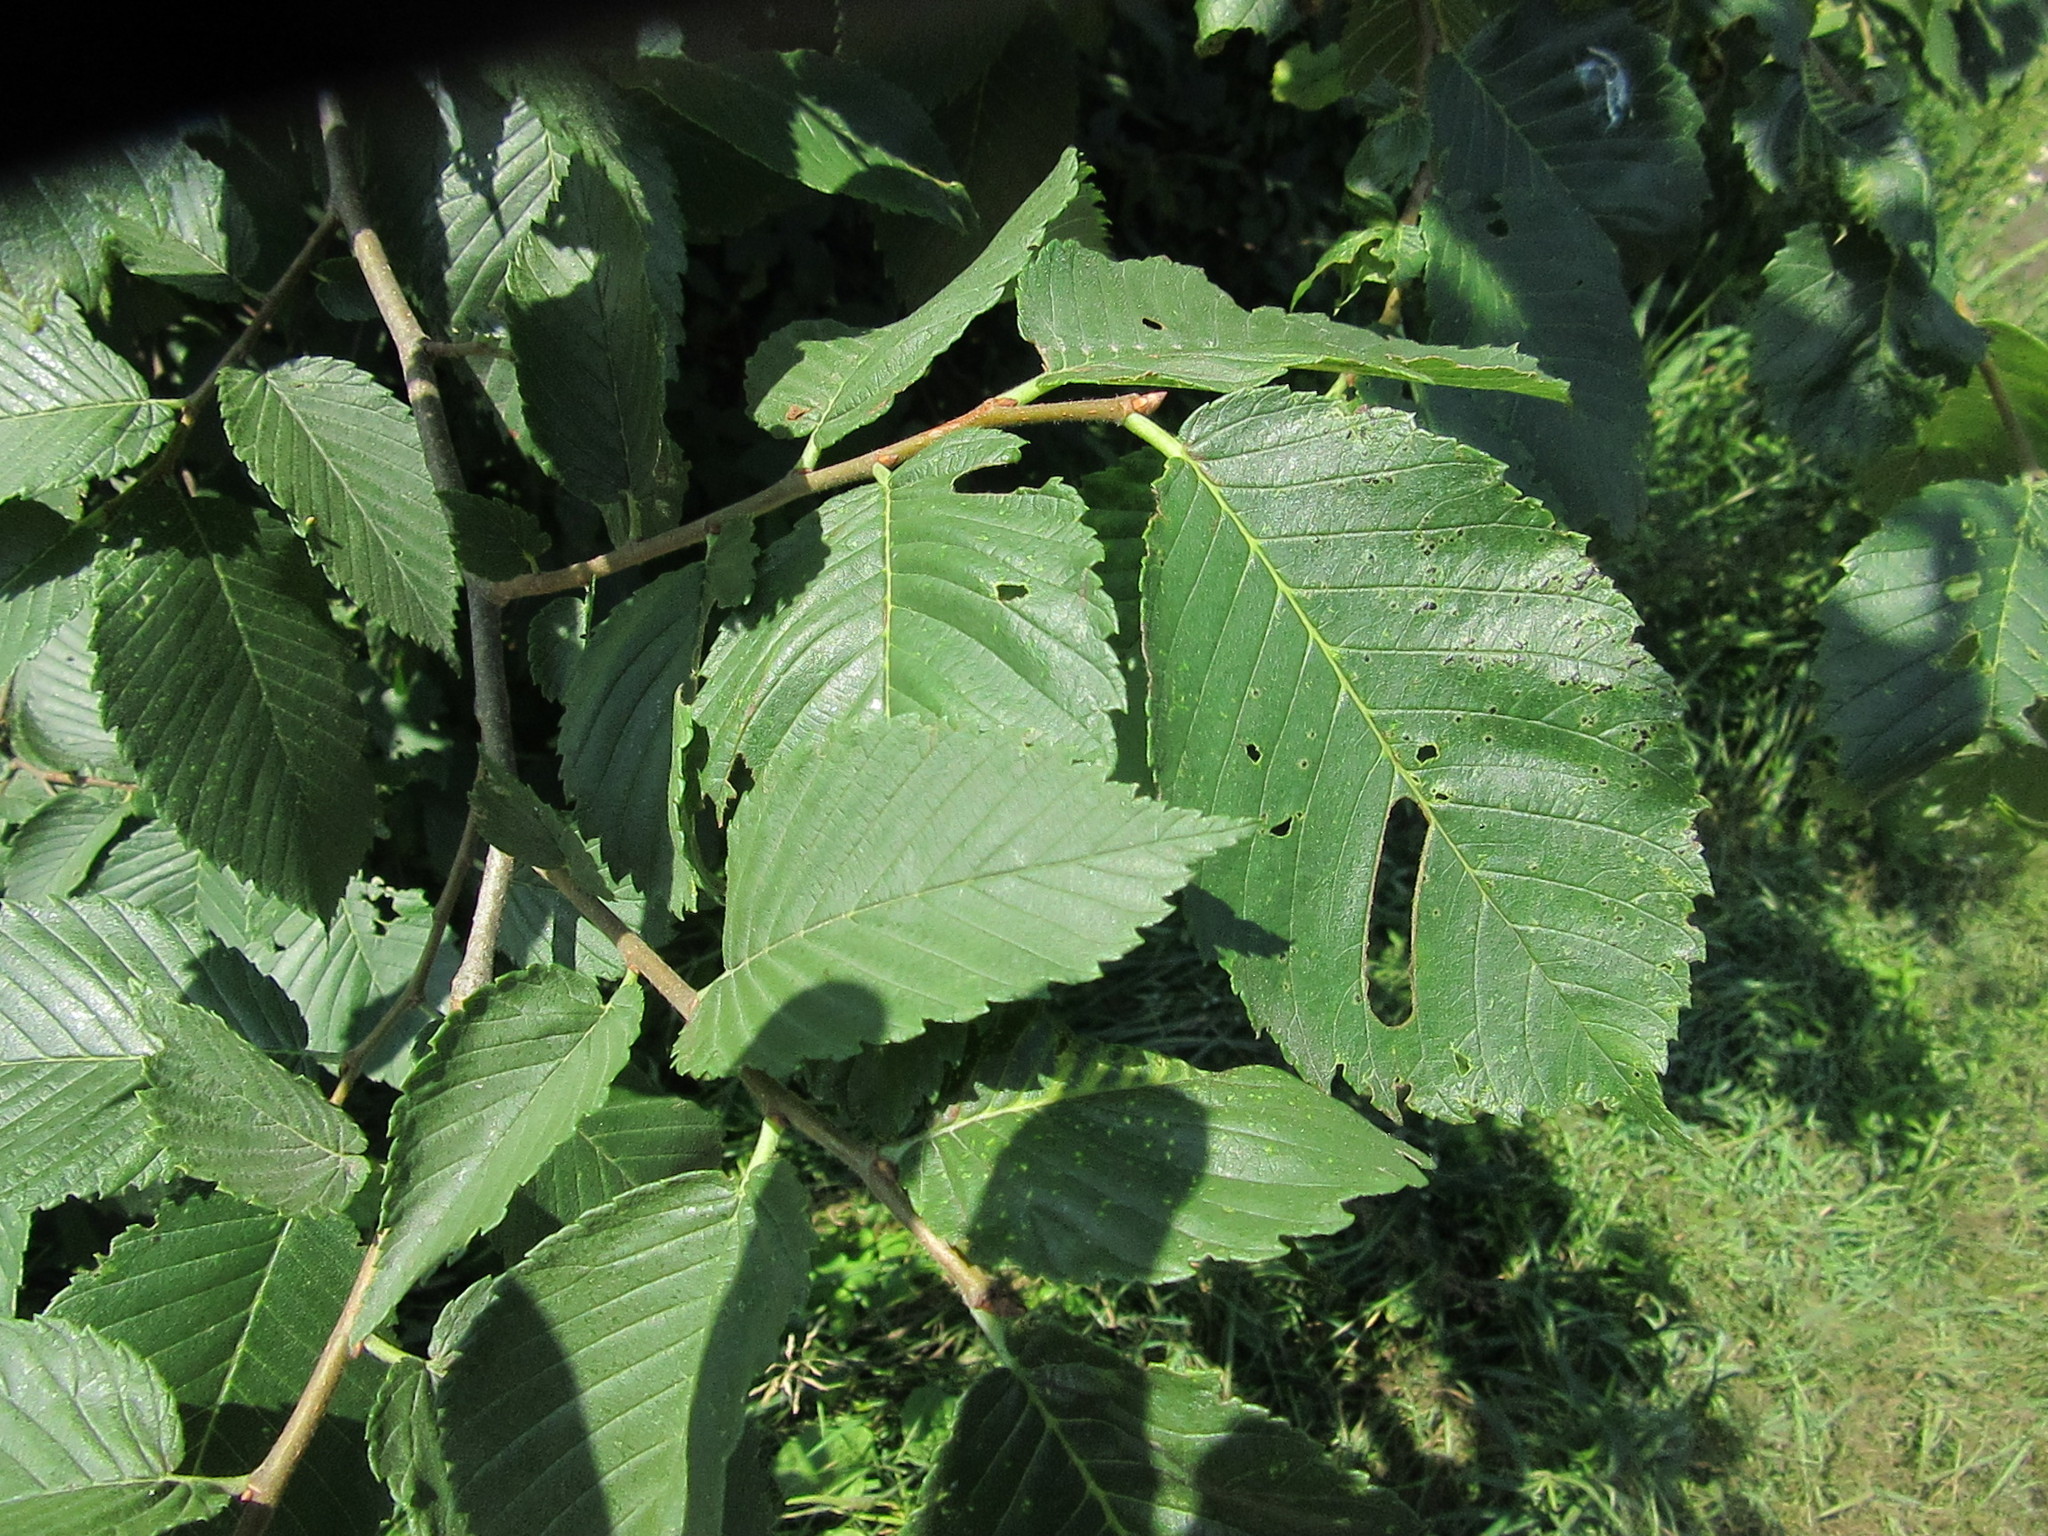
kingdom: Plantae
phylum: Tracheophyta
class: Magnoliopsida
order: Rosales
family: Ulmaceae
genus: Ulmus
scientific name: Ulmus americana
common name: American elm
